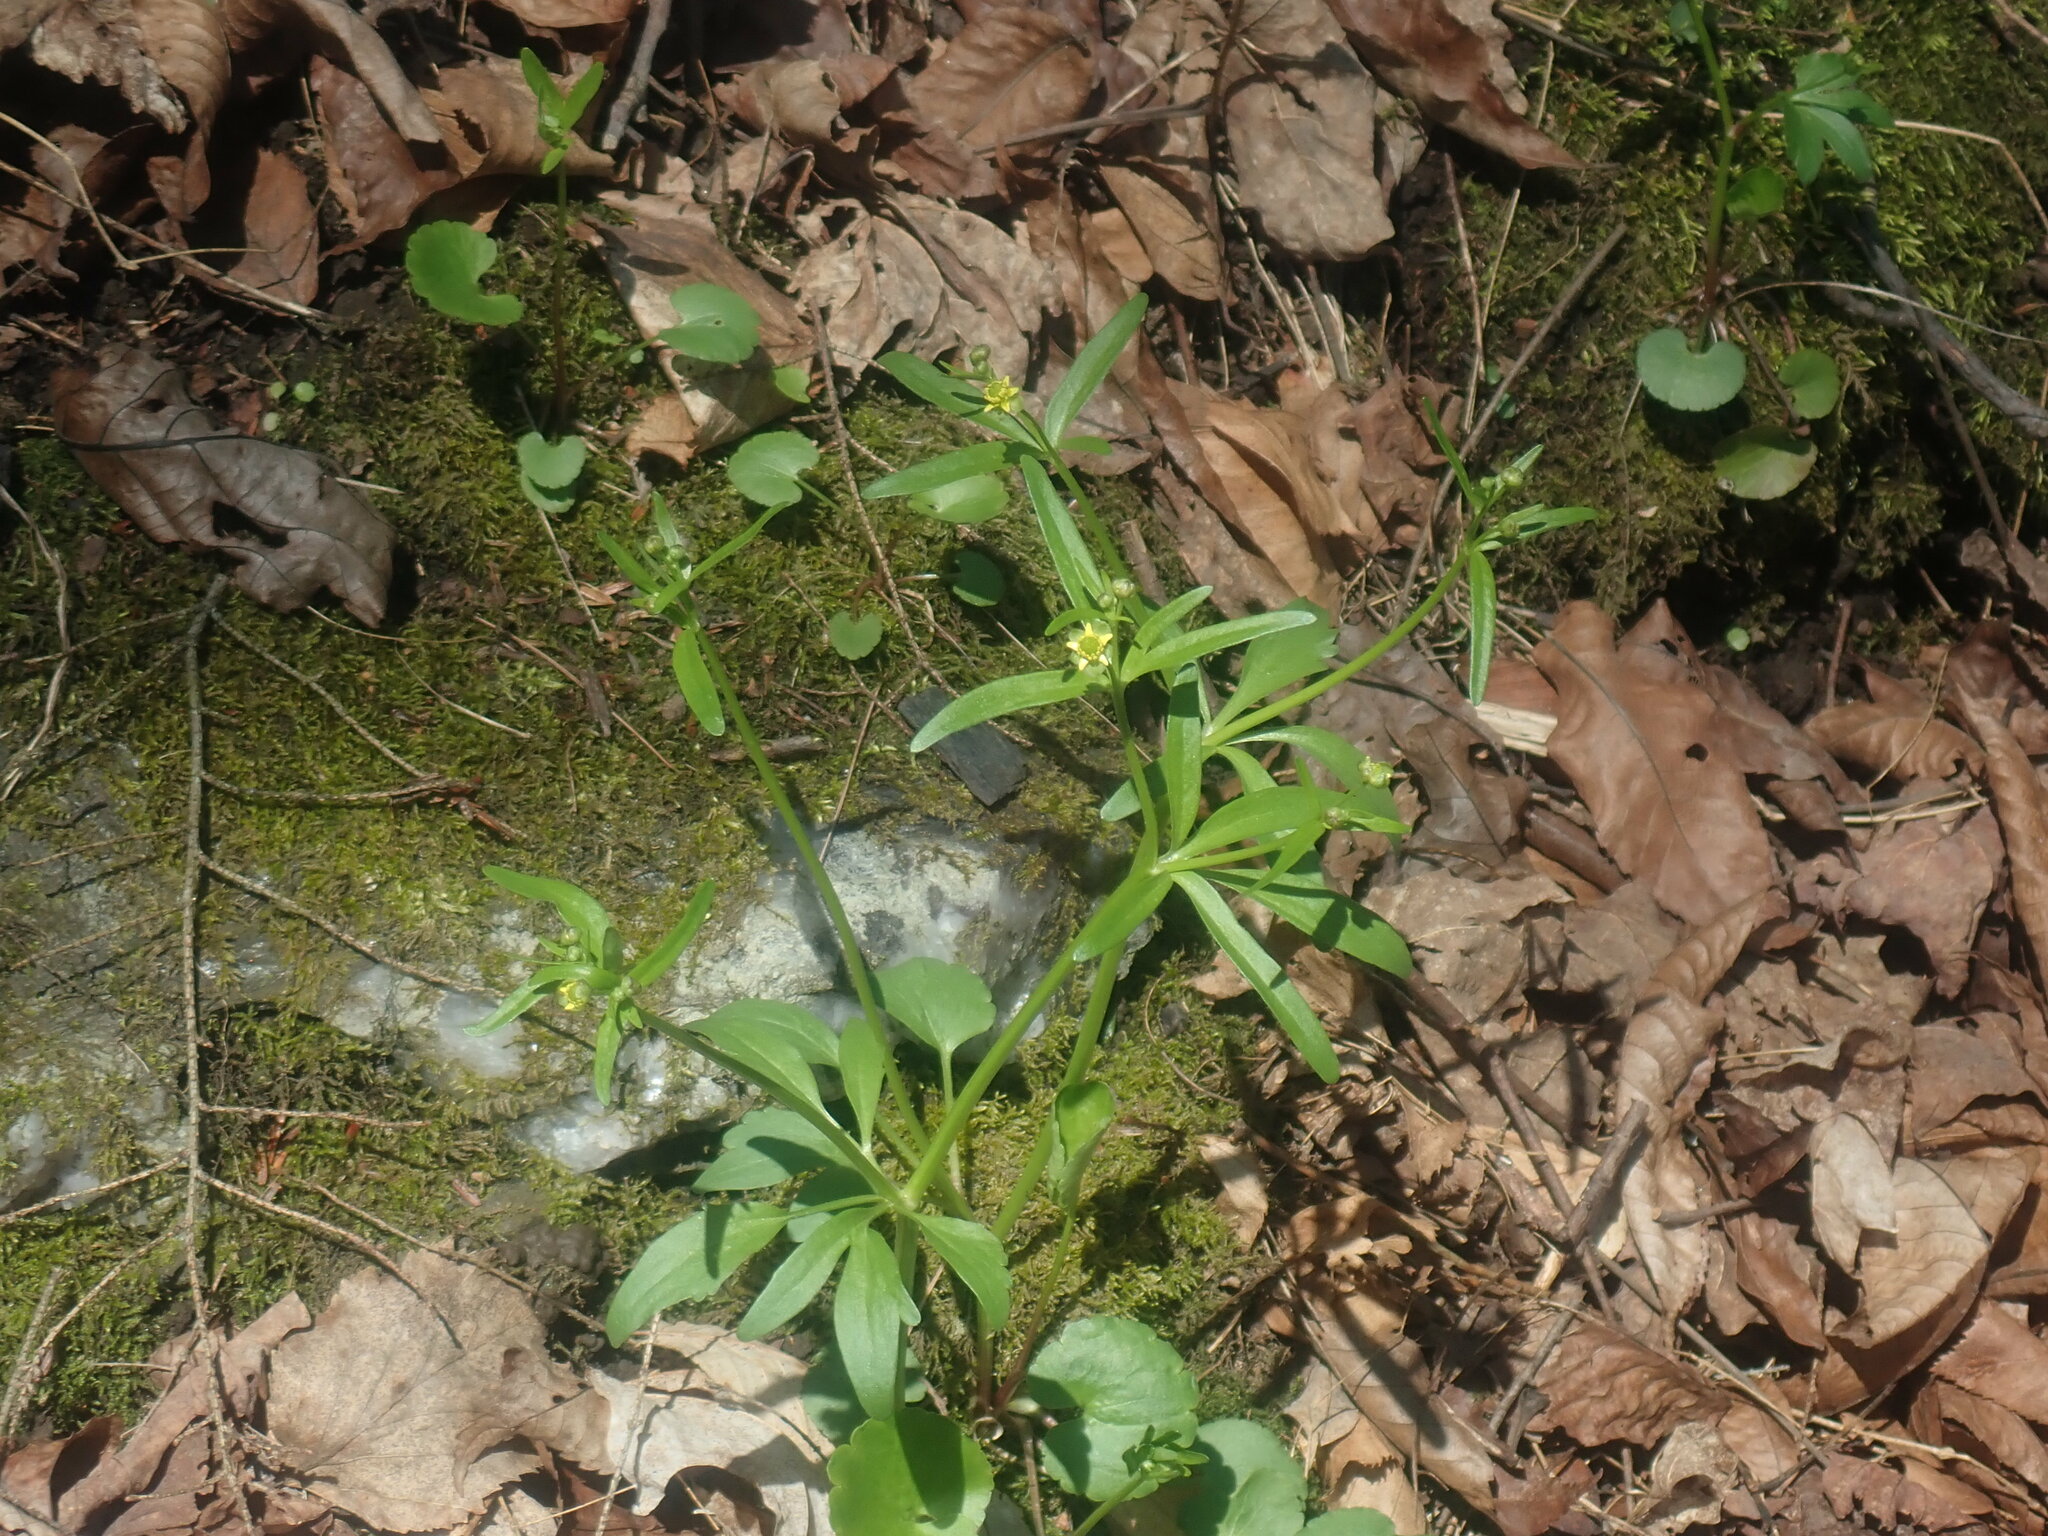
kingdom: Plantae
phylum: Tracheophyta
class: Magnoliopsida
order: Ranunculales
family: Ranunculaceae
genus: Ranunculus
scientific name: Ranunculus abortivus
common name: Early wood buttercup
